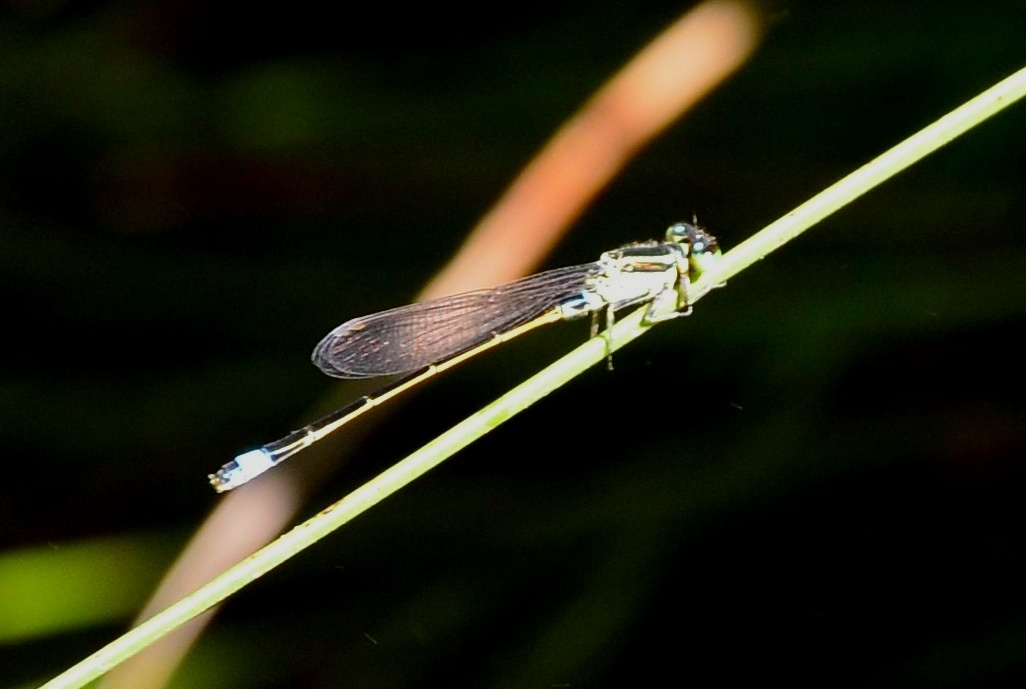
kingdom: Animalia
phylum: Arthropoda
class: Insecta
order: Odonata
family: Coenagrionidae
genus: Ischnura
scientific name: Ischnura senegalensis
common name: Tropical bluetail
